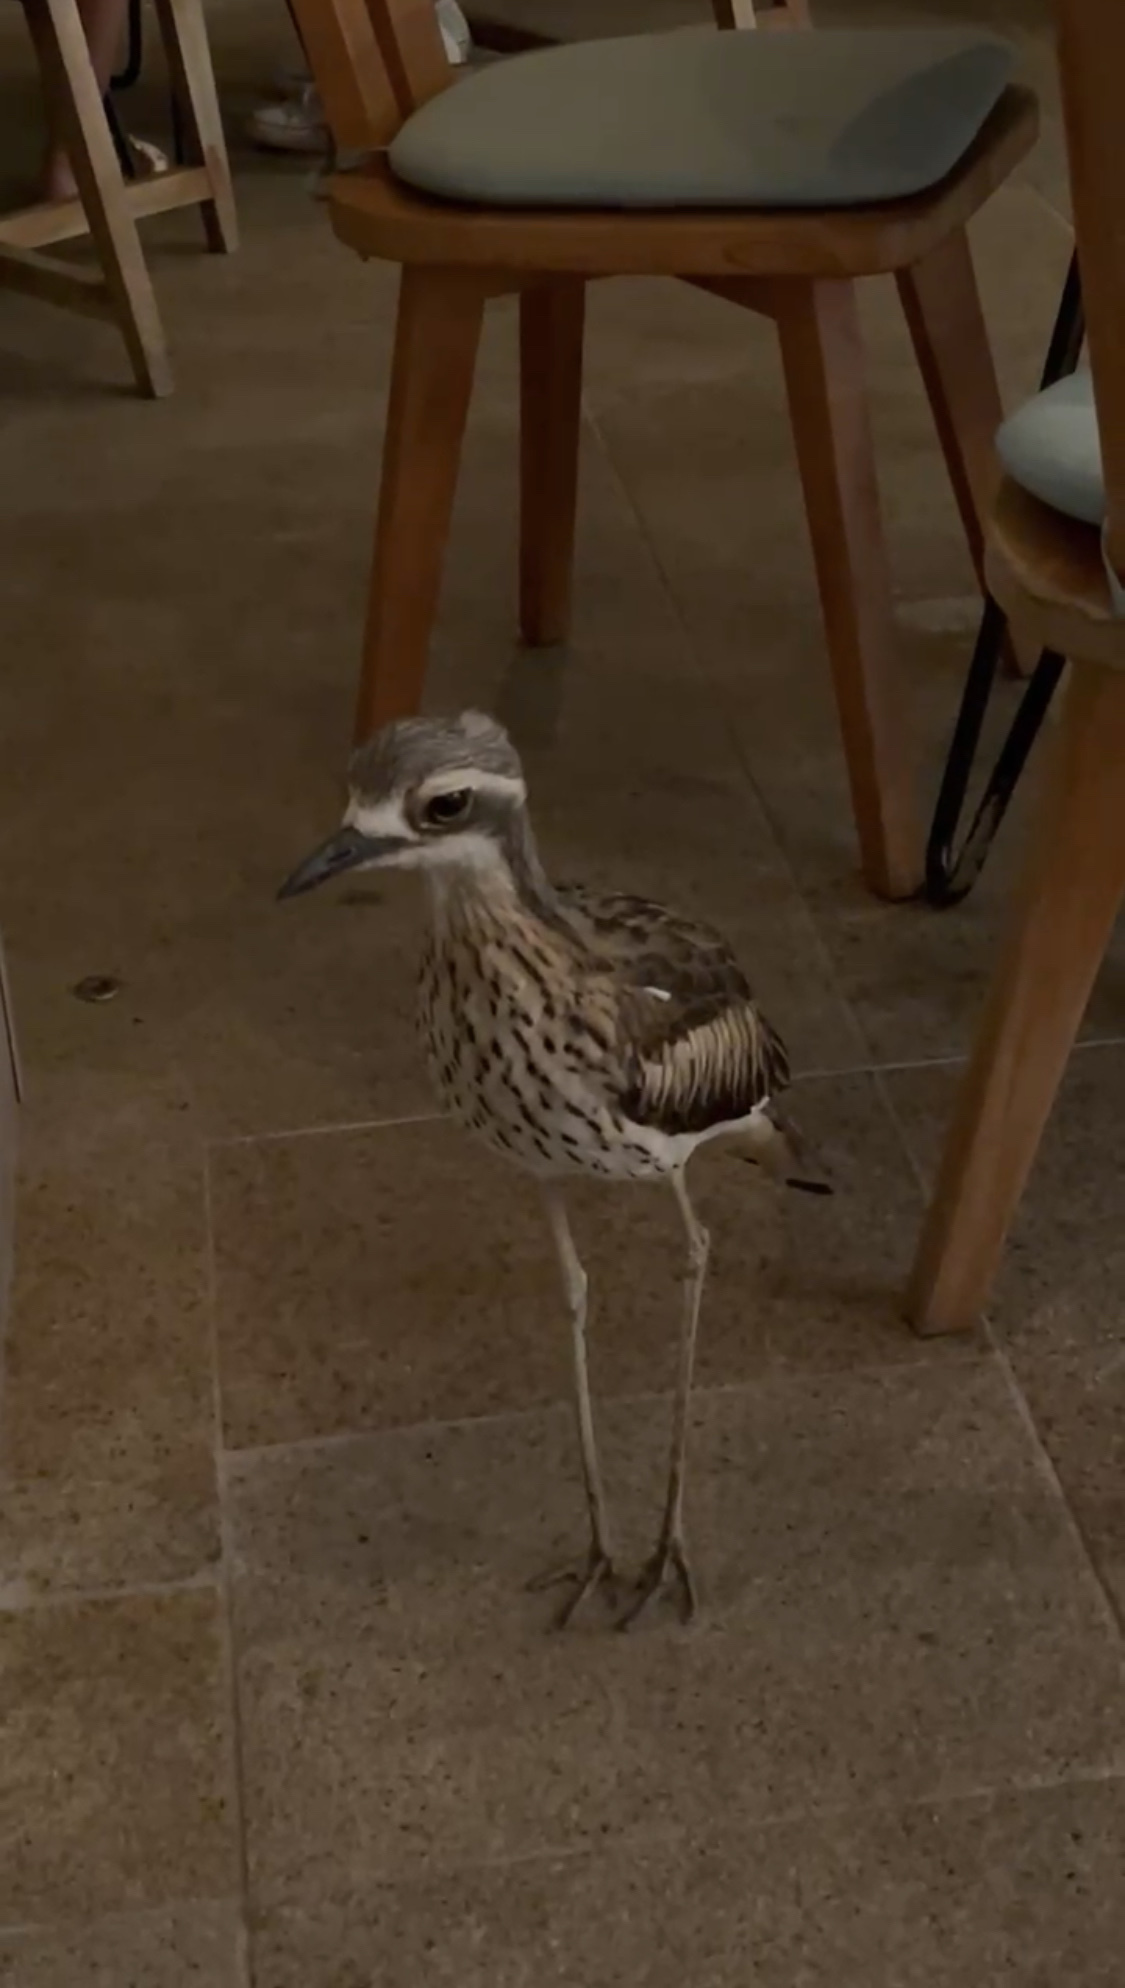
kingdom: Animalia
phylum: Chordata
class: Aves
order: Charadriiformes
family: Burhinidae
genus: Burhinus
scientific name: Burhinus grallarius
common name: Bush stone-curlew
